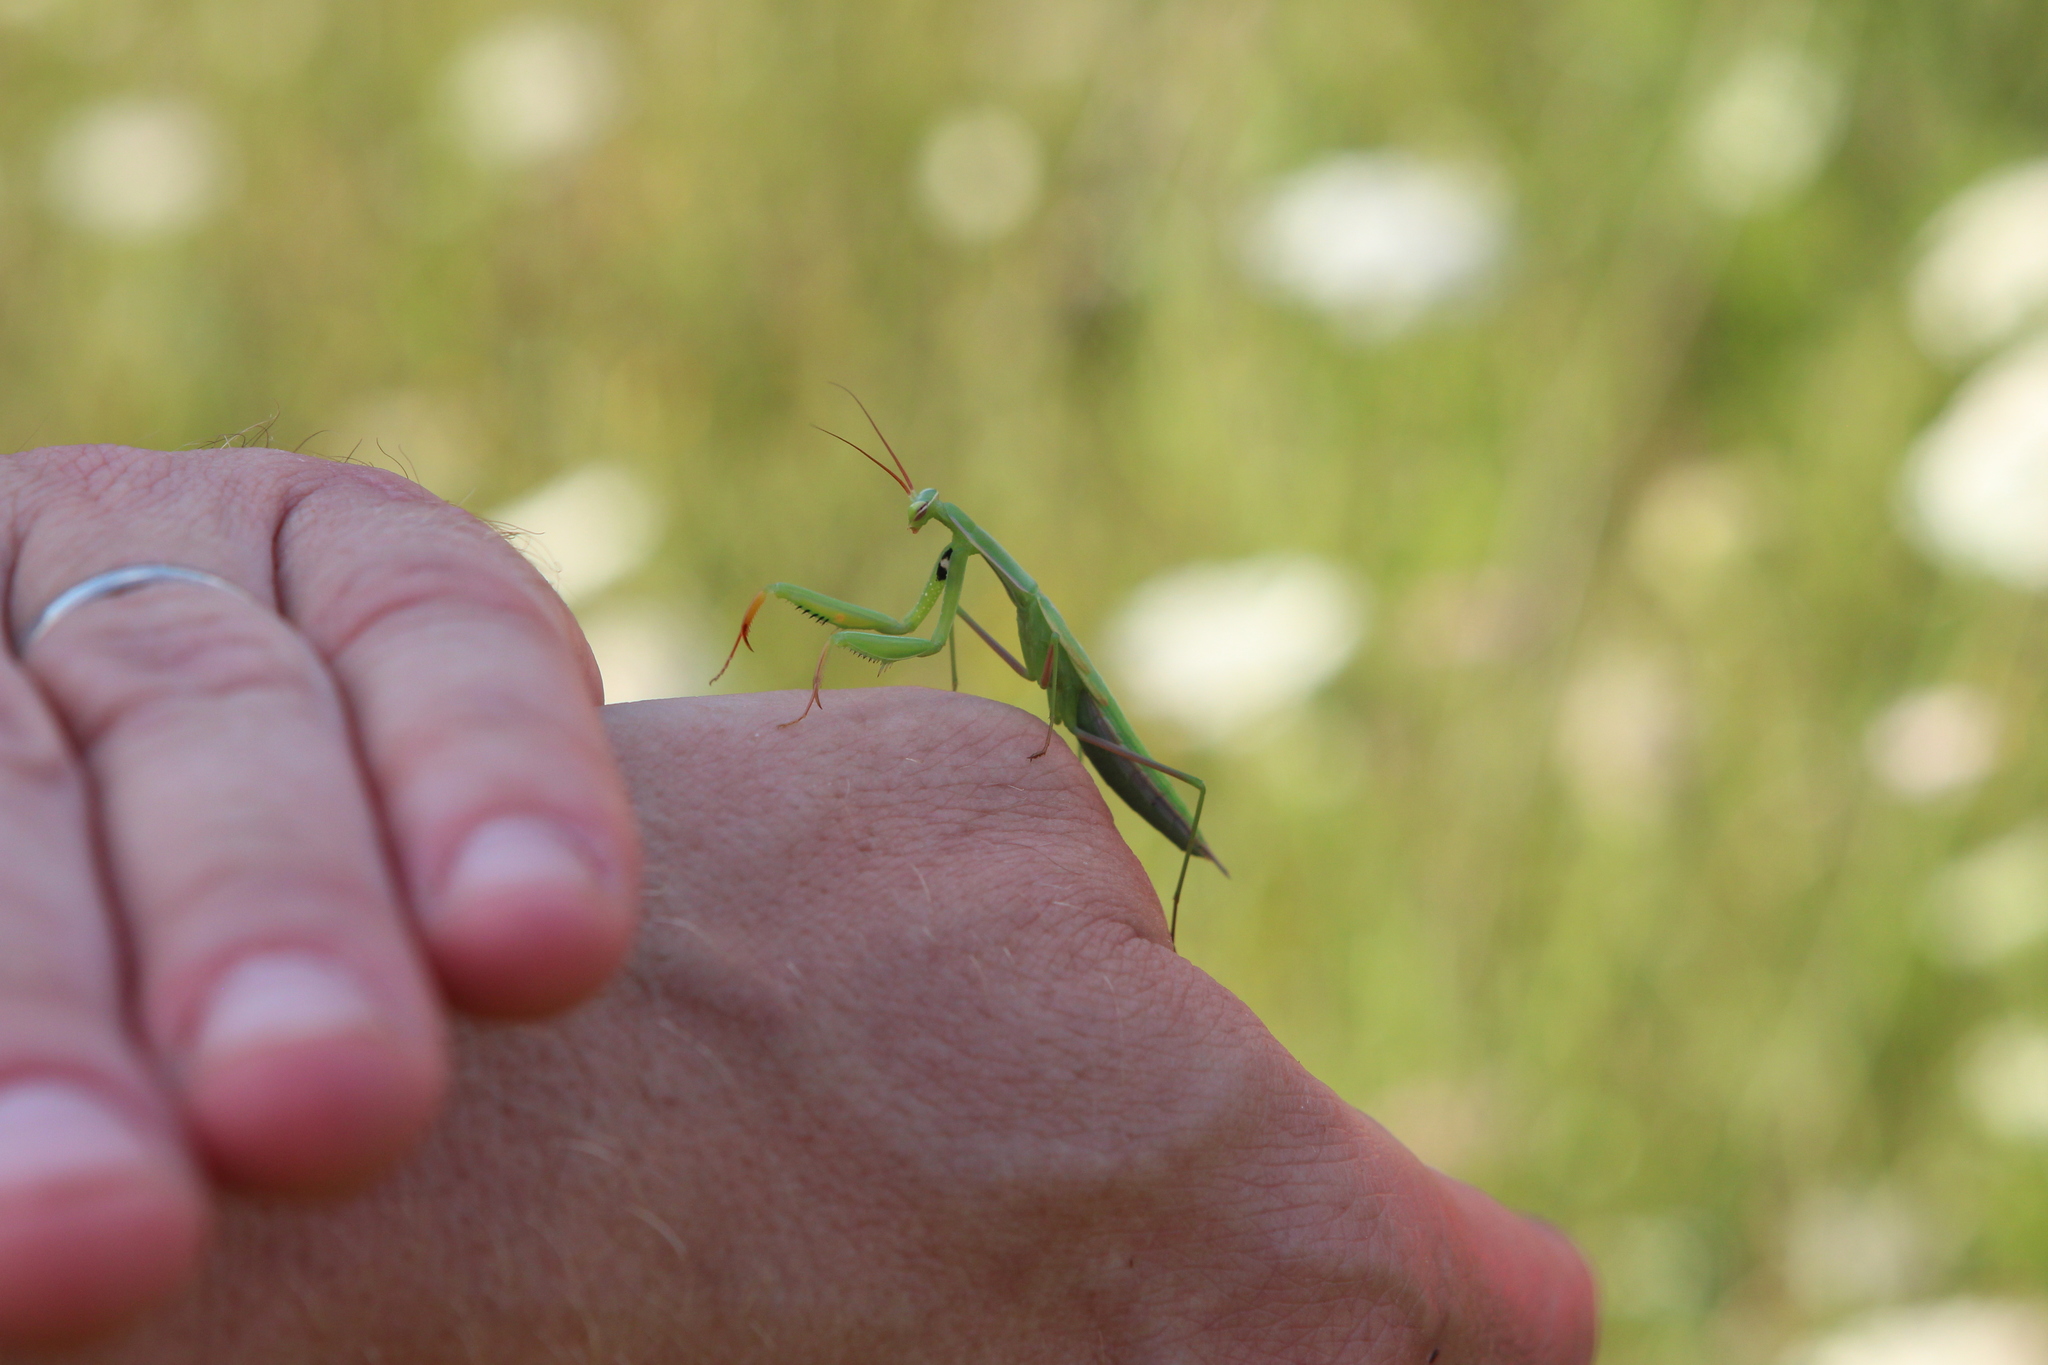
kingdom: Animalia
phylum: Arthropoda
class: Insecta
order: Mantodea
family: Mantidae
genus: Mantis
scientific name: Mantis religiosa
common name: Praying mantis
